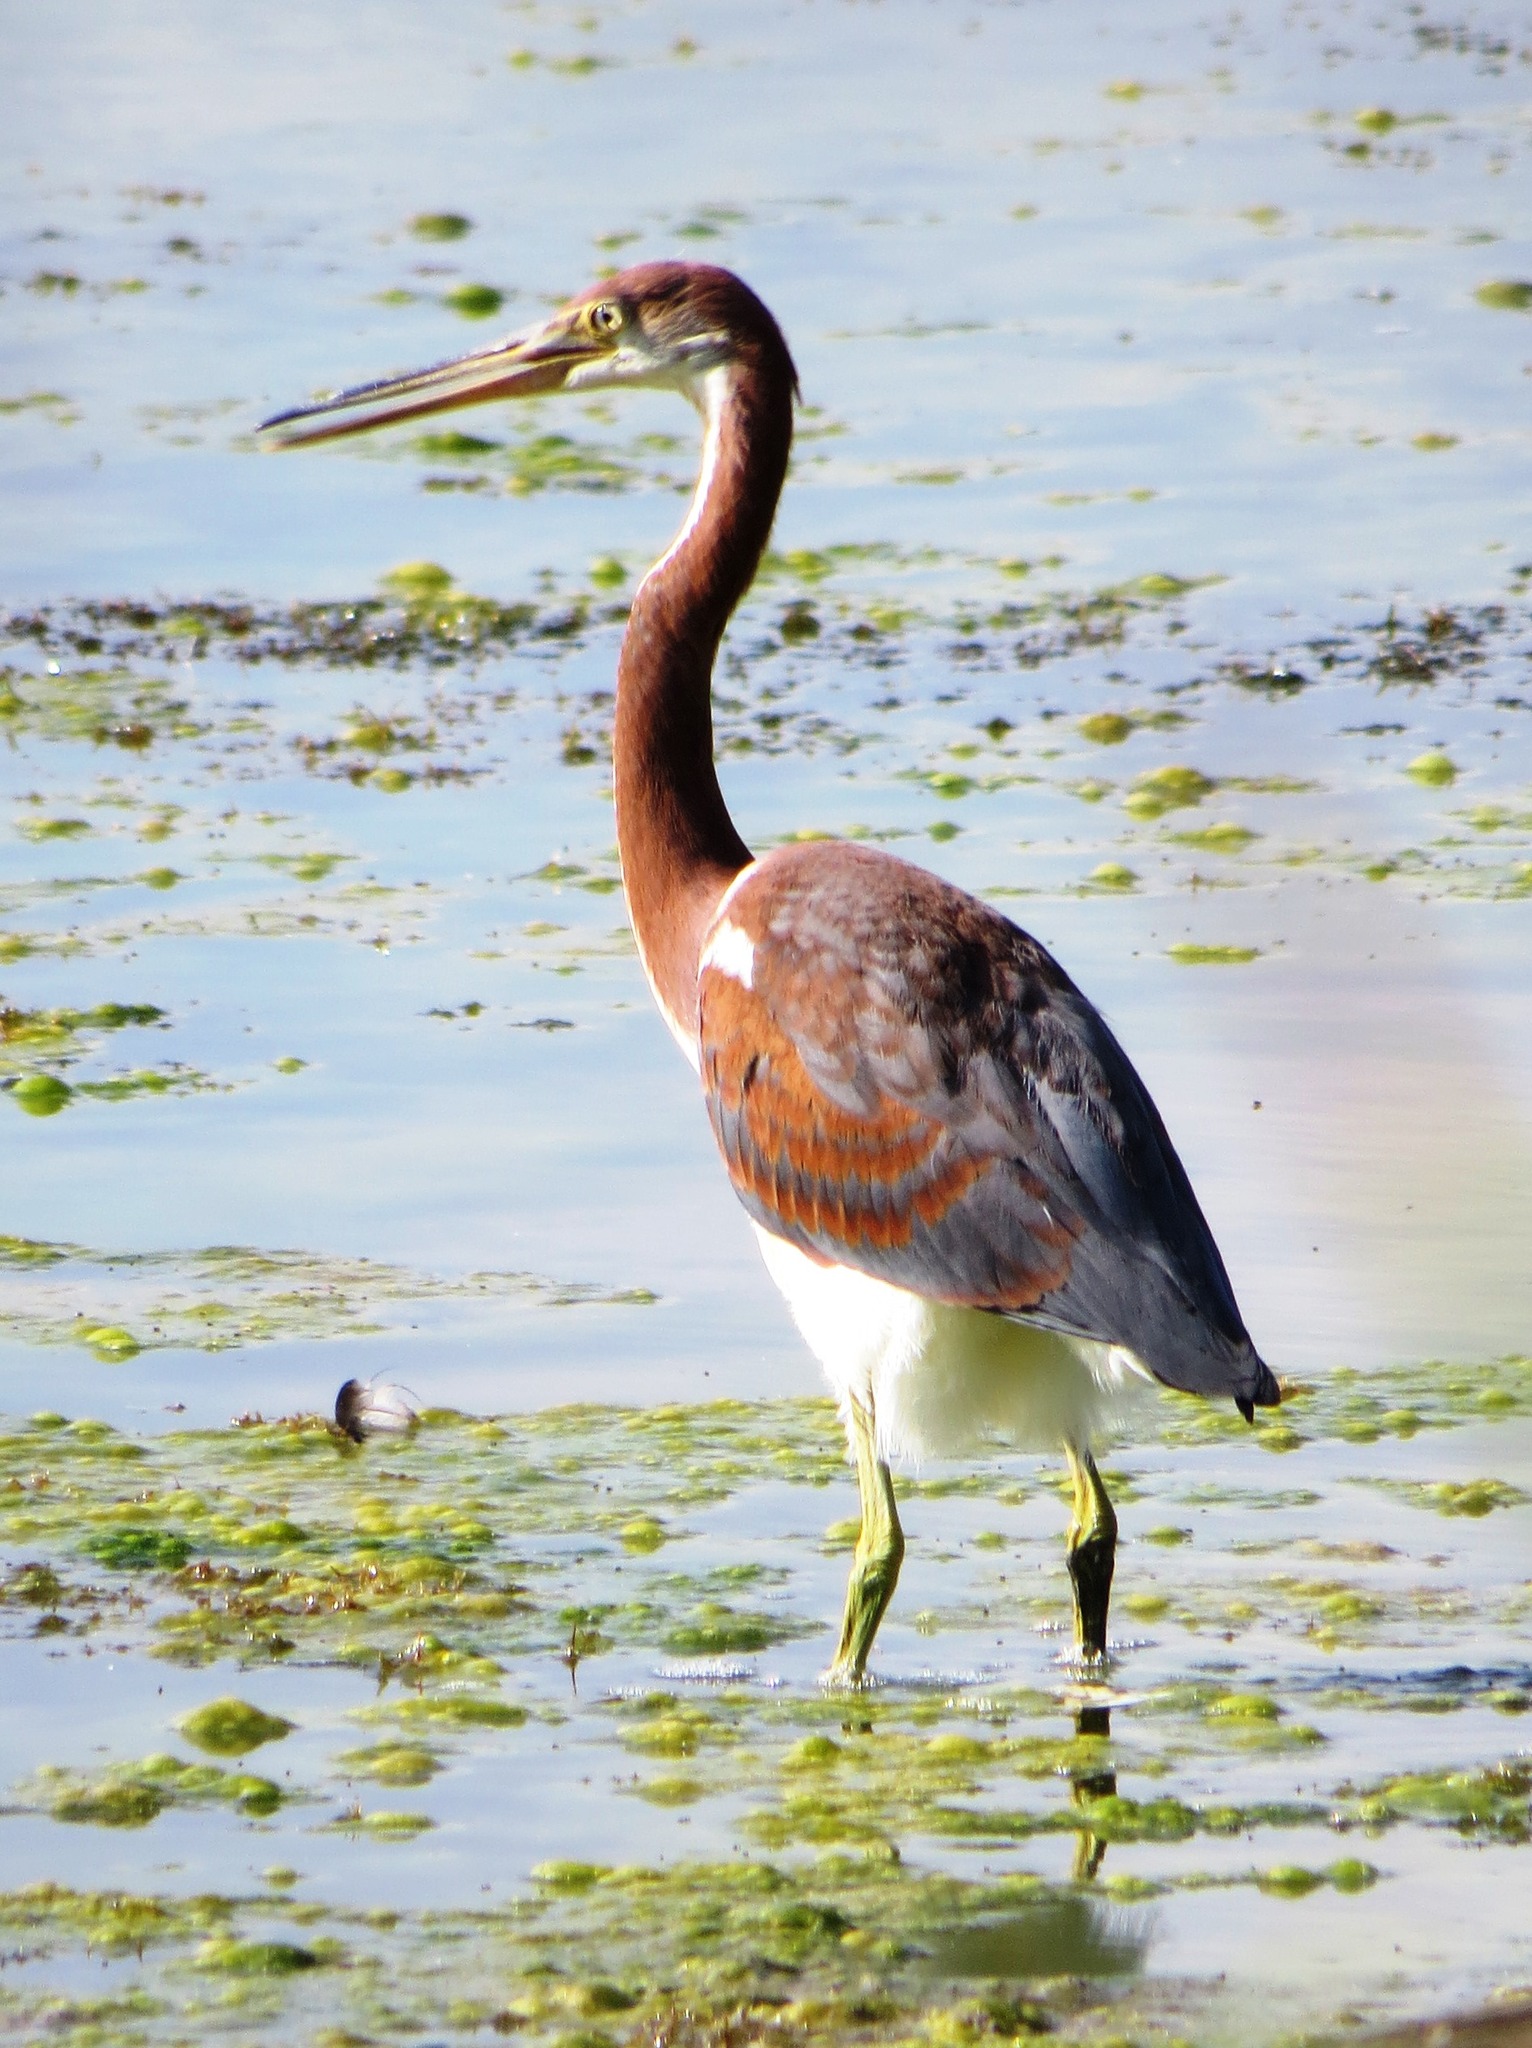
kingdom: Animalia
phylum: Chordata
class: Aves
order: Pelecaniformes
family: Ardeidae
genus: Egretta
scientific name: Egretta tricolor
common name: Tricolored heron
